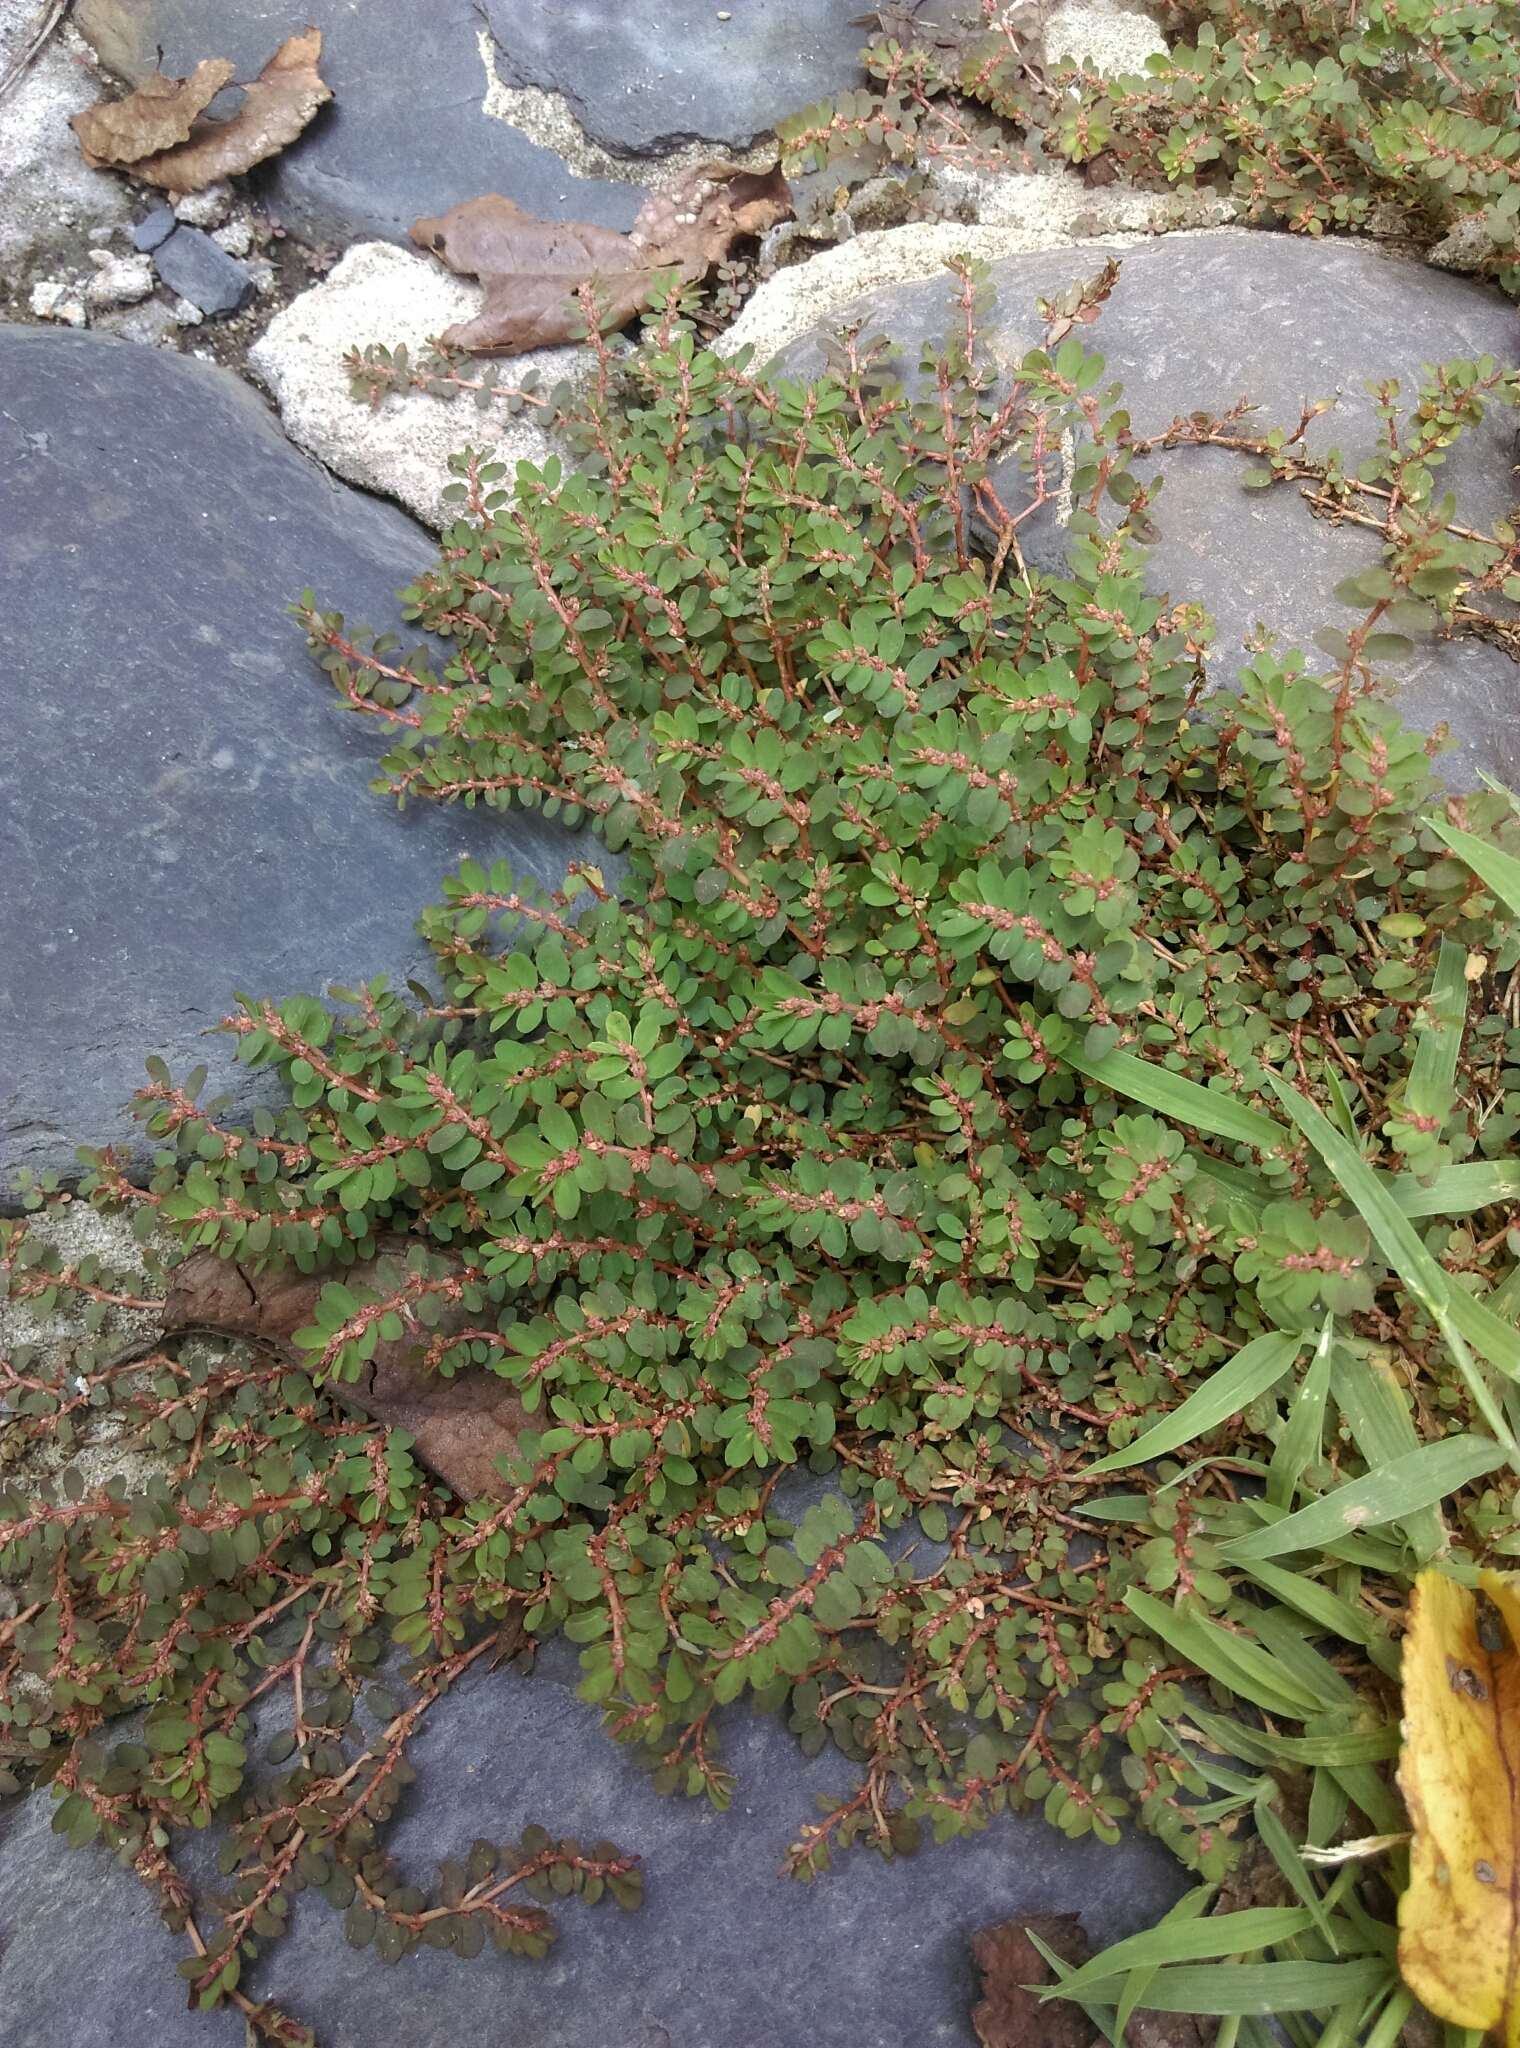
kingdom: Plantae
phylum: Tracheophyta
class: Magnoliopsida
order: Malpighiales
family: Euphorbiaceae
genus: Euphorbia
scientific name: Euphorbia thymifolia
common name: Gulf sandmat
